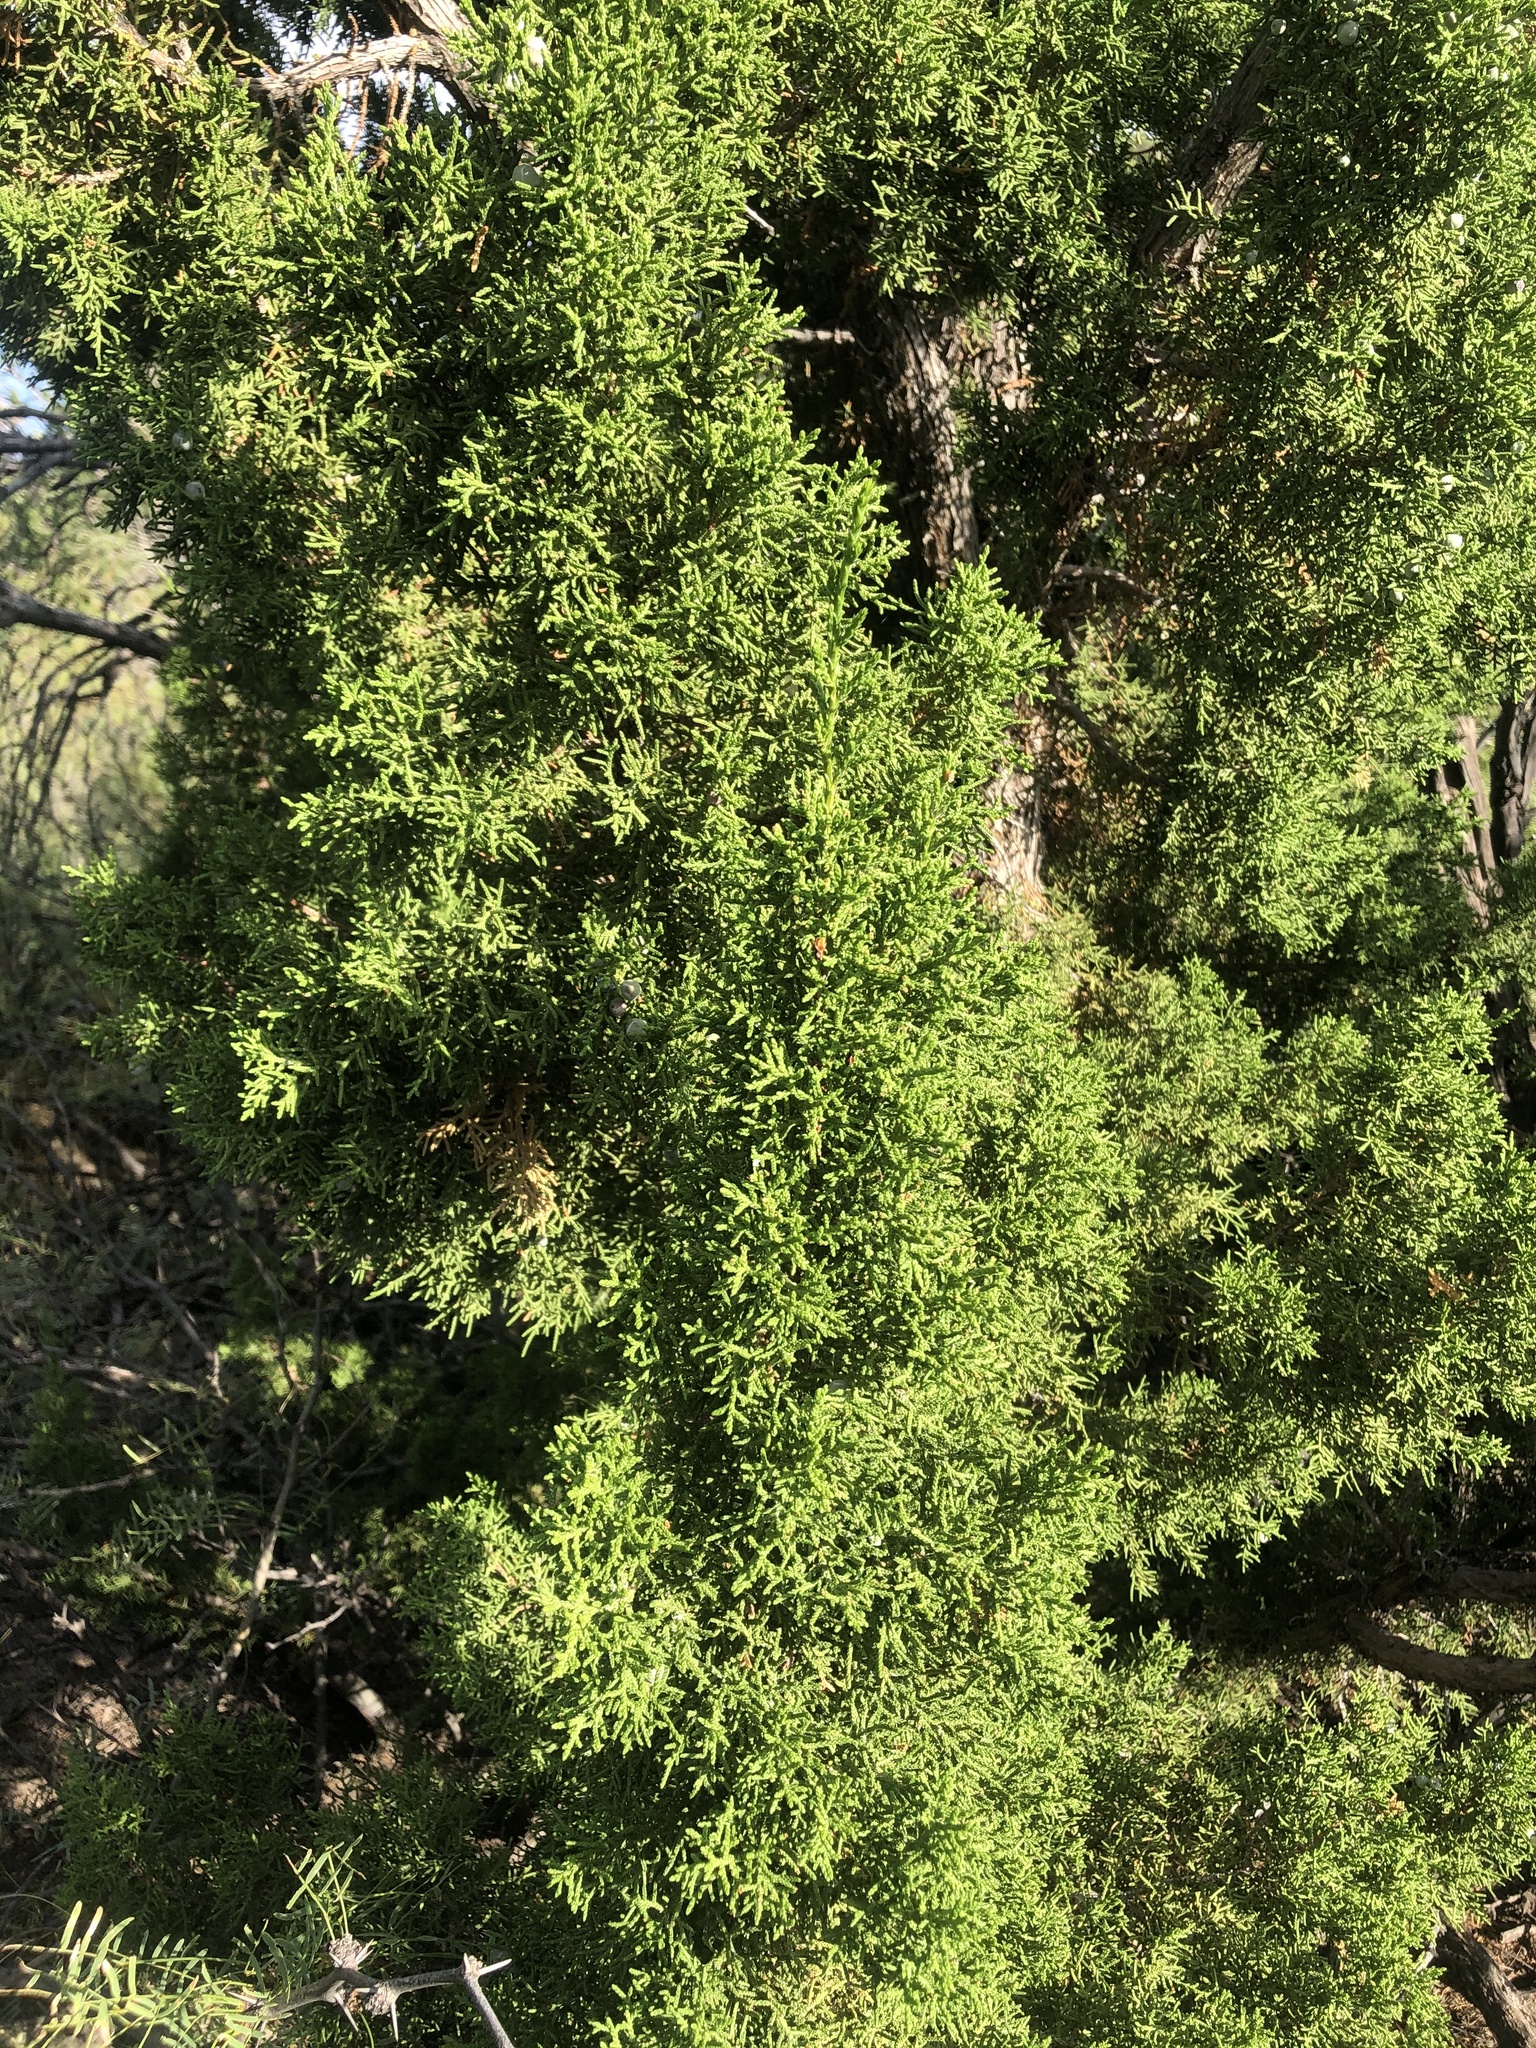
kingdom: Plantae
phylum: Tracheophyta
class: Pinopsida
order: Pinales
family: Cupressaceae
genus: Juniperus
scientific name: Juniperus monosperma
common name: One-seed juniper
